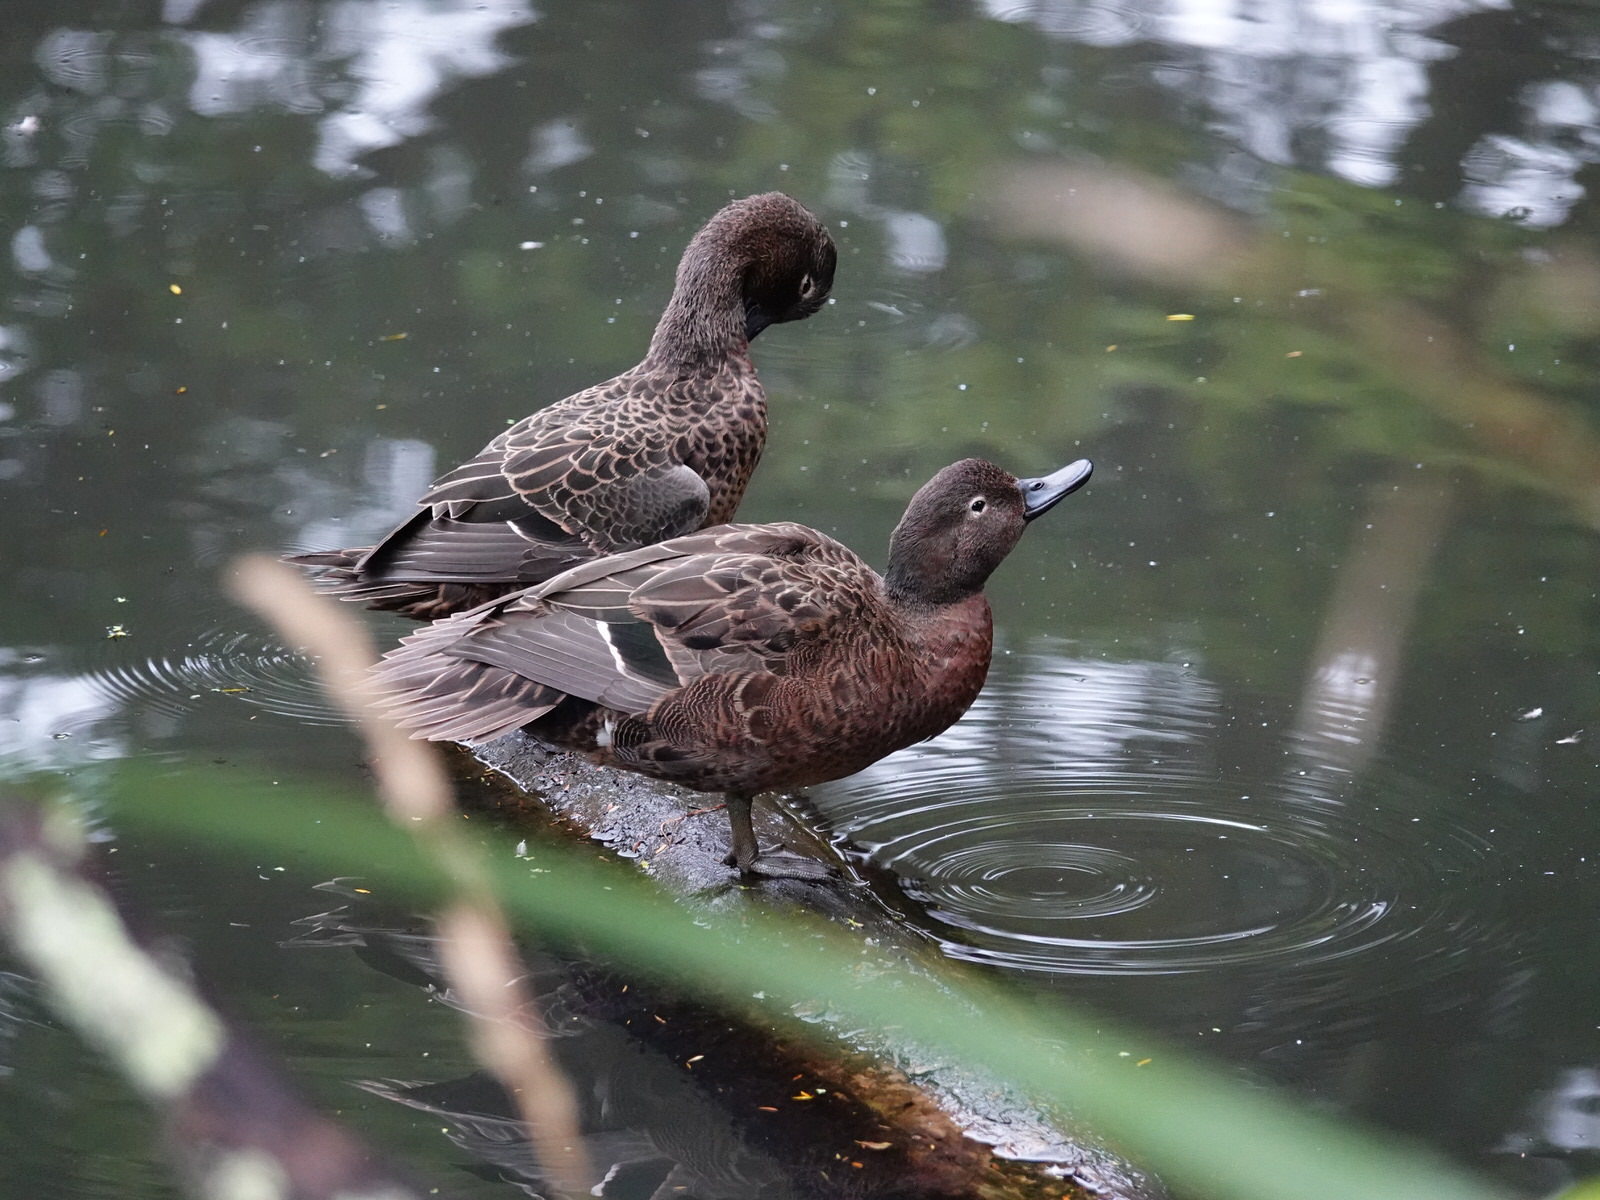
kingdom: Animalia
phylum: Chordata
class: Aves
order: Anseriformes
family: Anatidae
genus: Anas
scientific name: Anas chlorotis
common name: Brown teal
